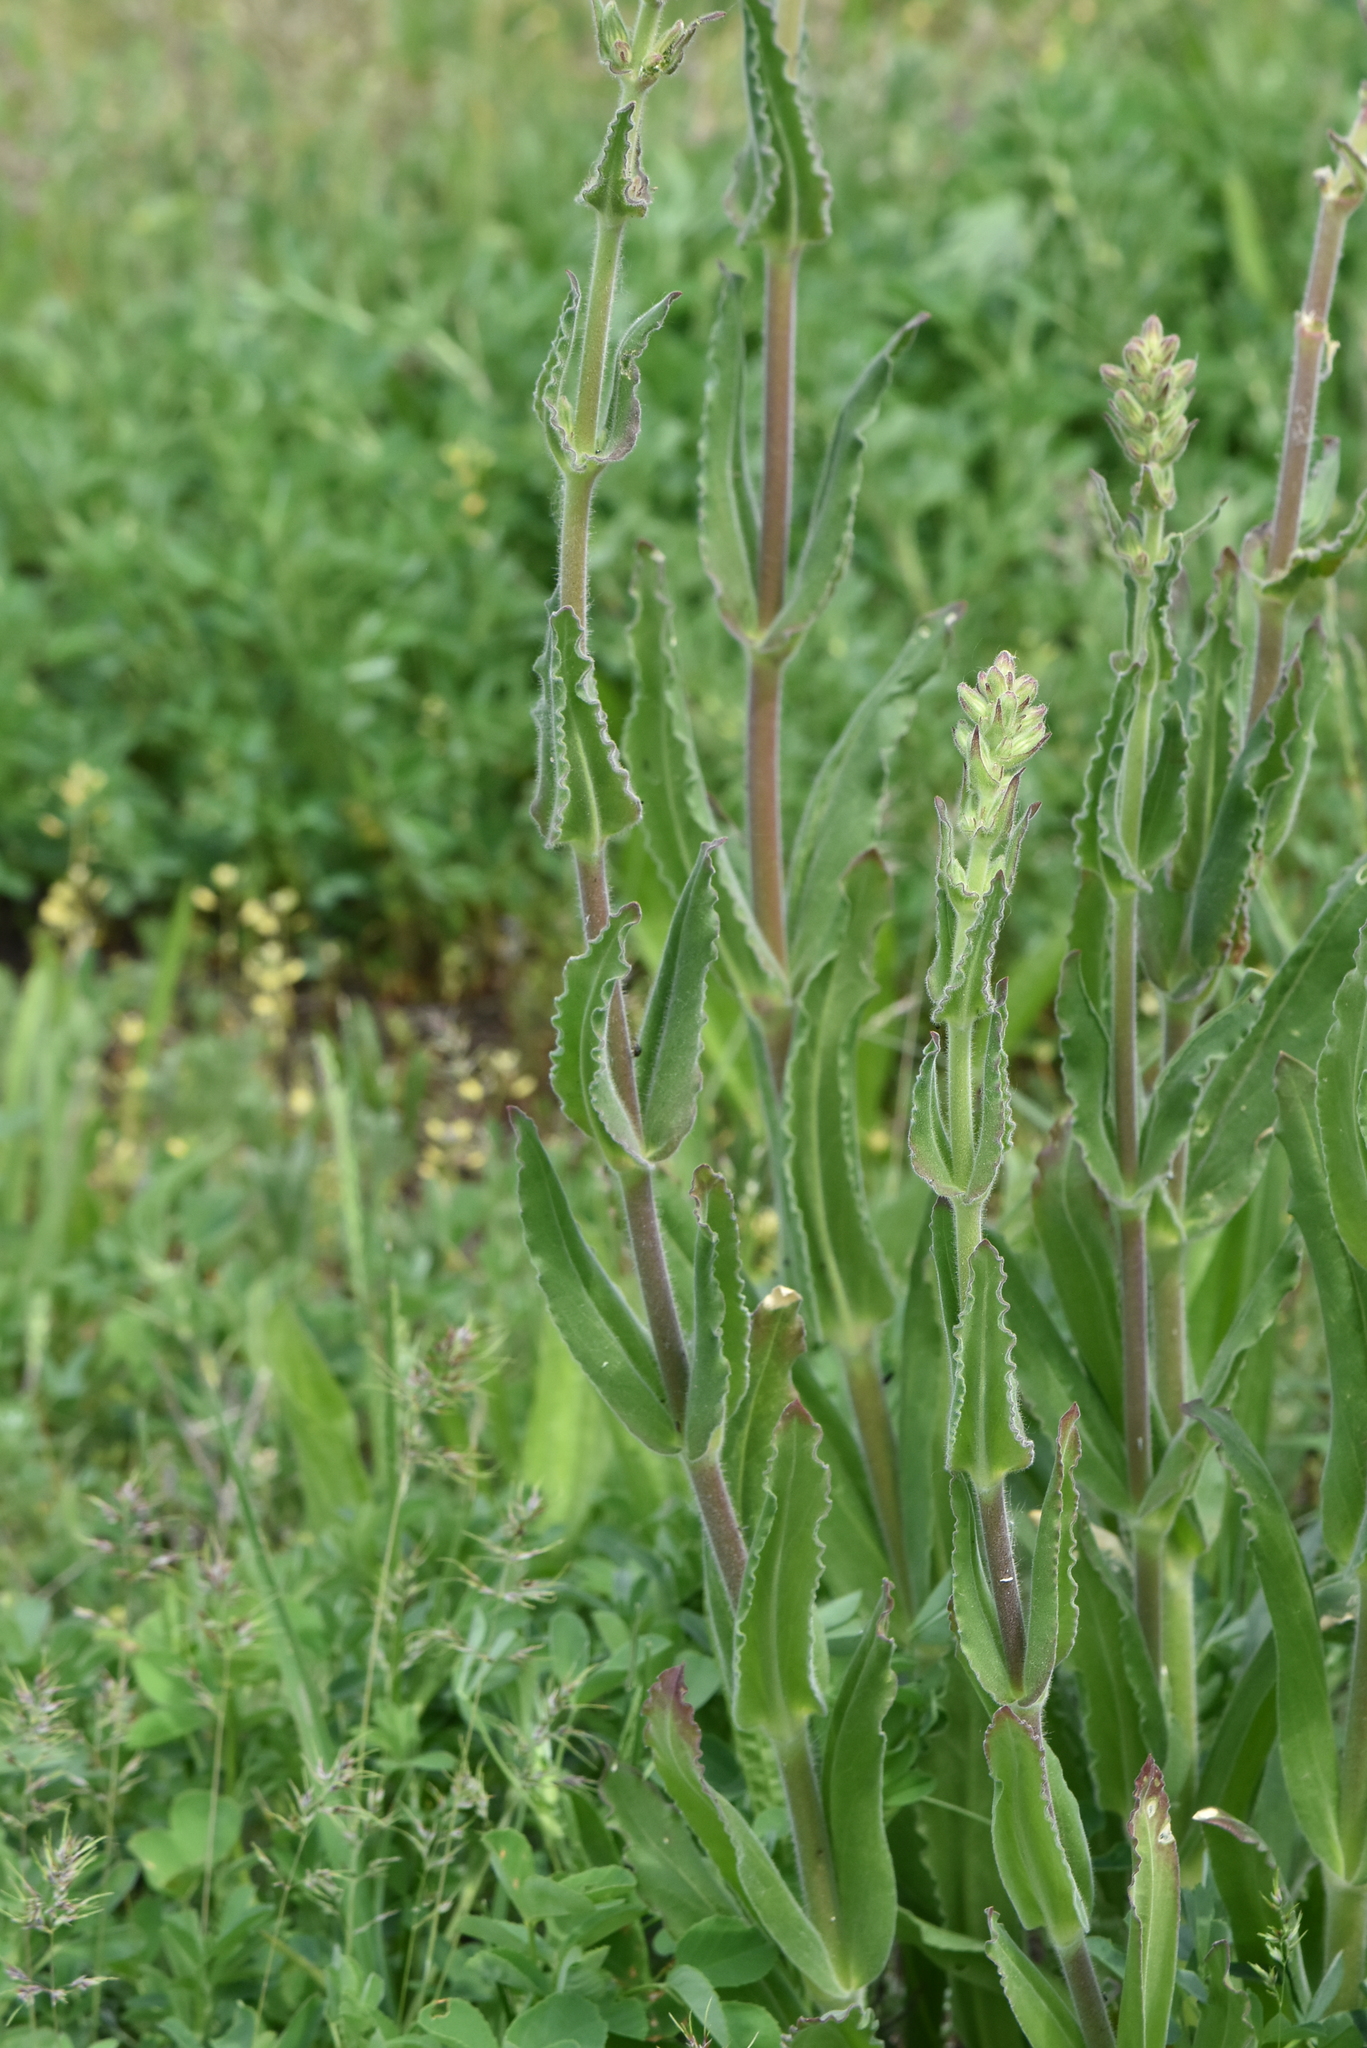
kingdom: Plantae
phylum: Tracheophyta
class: Magnoliopsida
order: Caryophyllales
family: Caryophyllaceae
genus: Silene
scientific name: Silene viscosa
